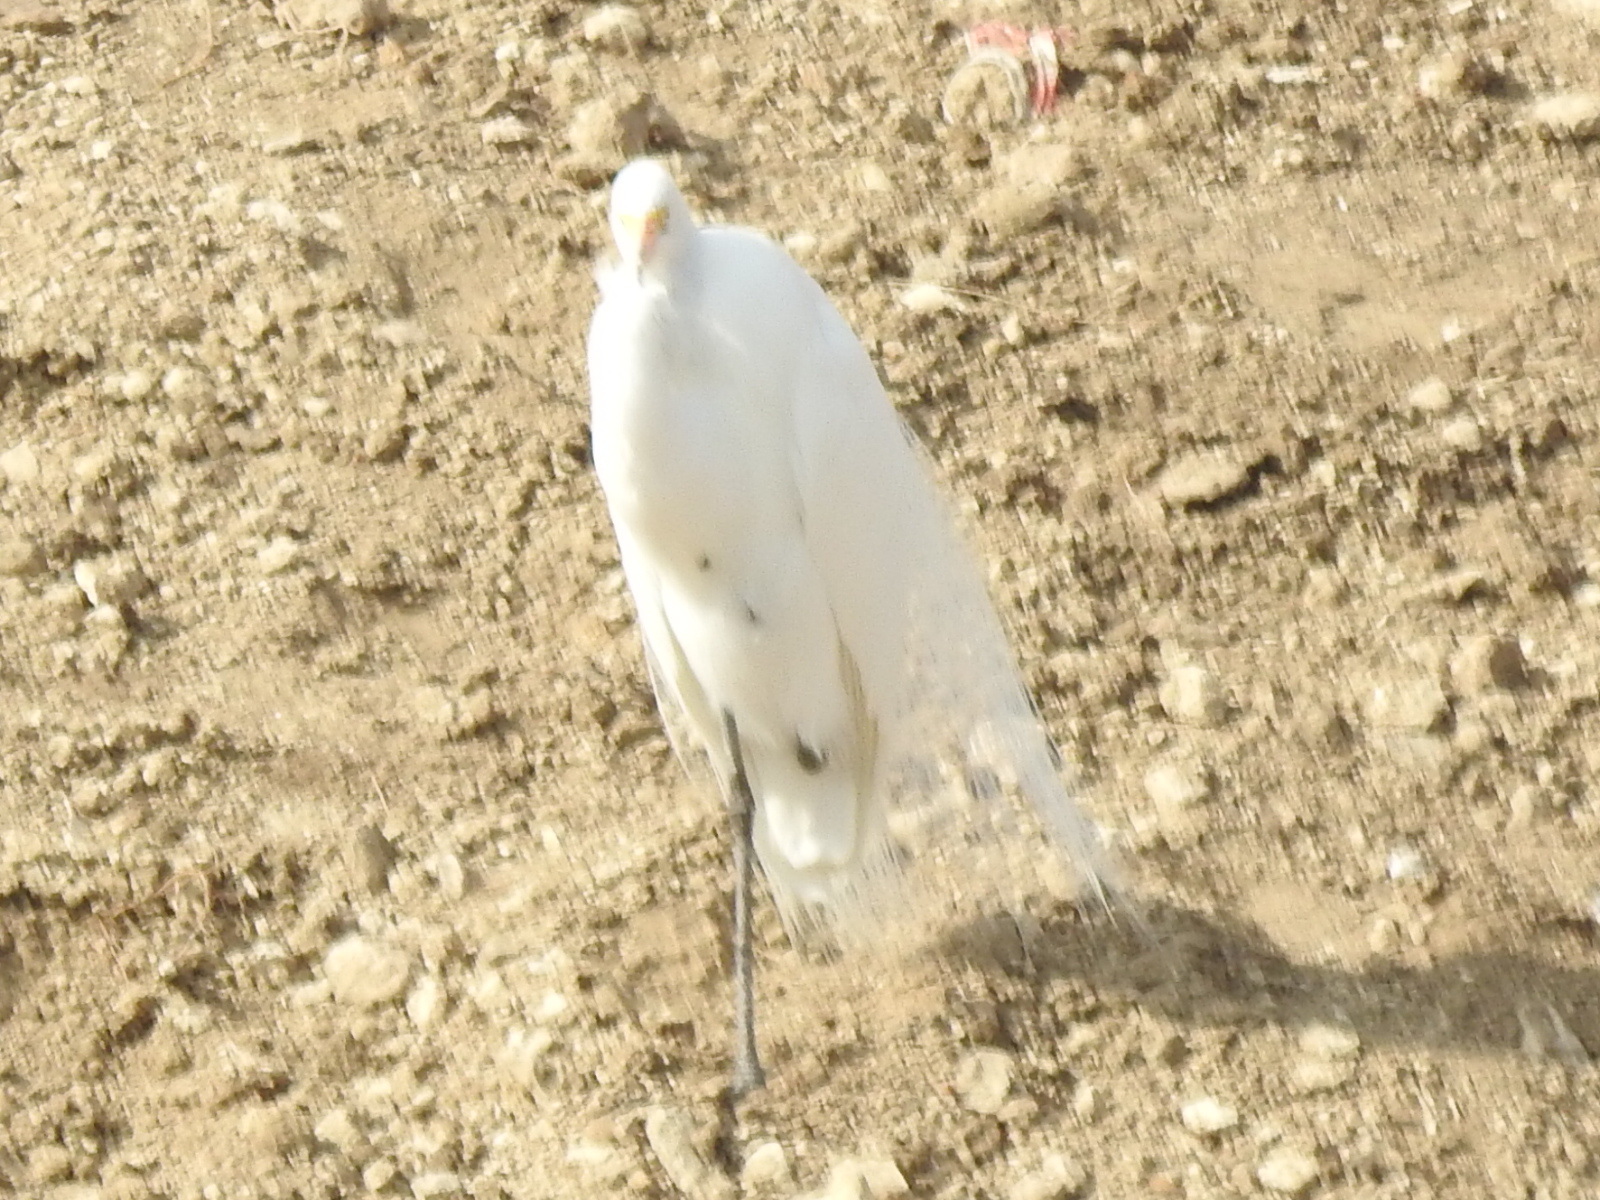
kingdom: Animalia
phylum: Chordata
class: Aves
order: Pelecaniformes
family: Ardeidae
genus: Ardea
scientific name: Ardea alba
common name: Great egret
